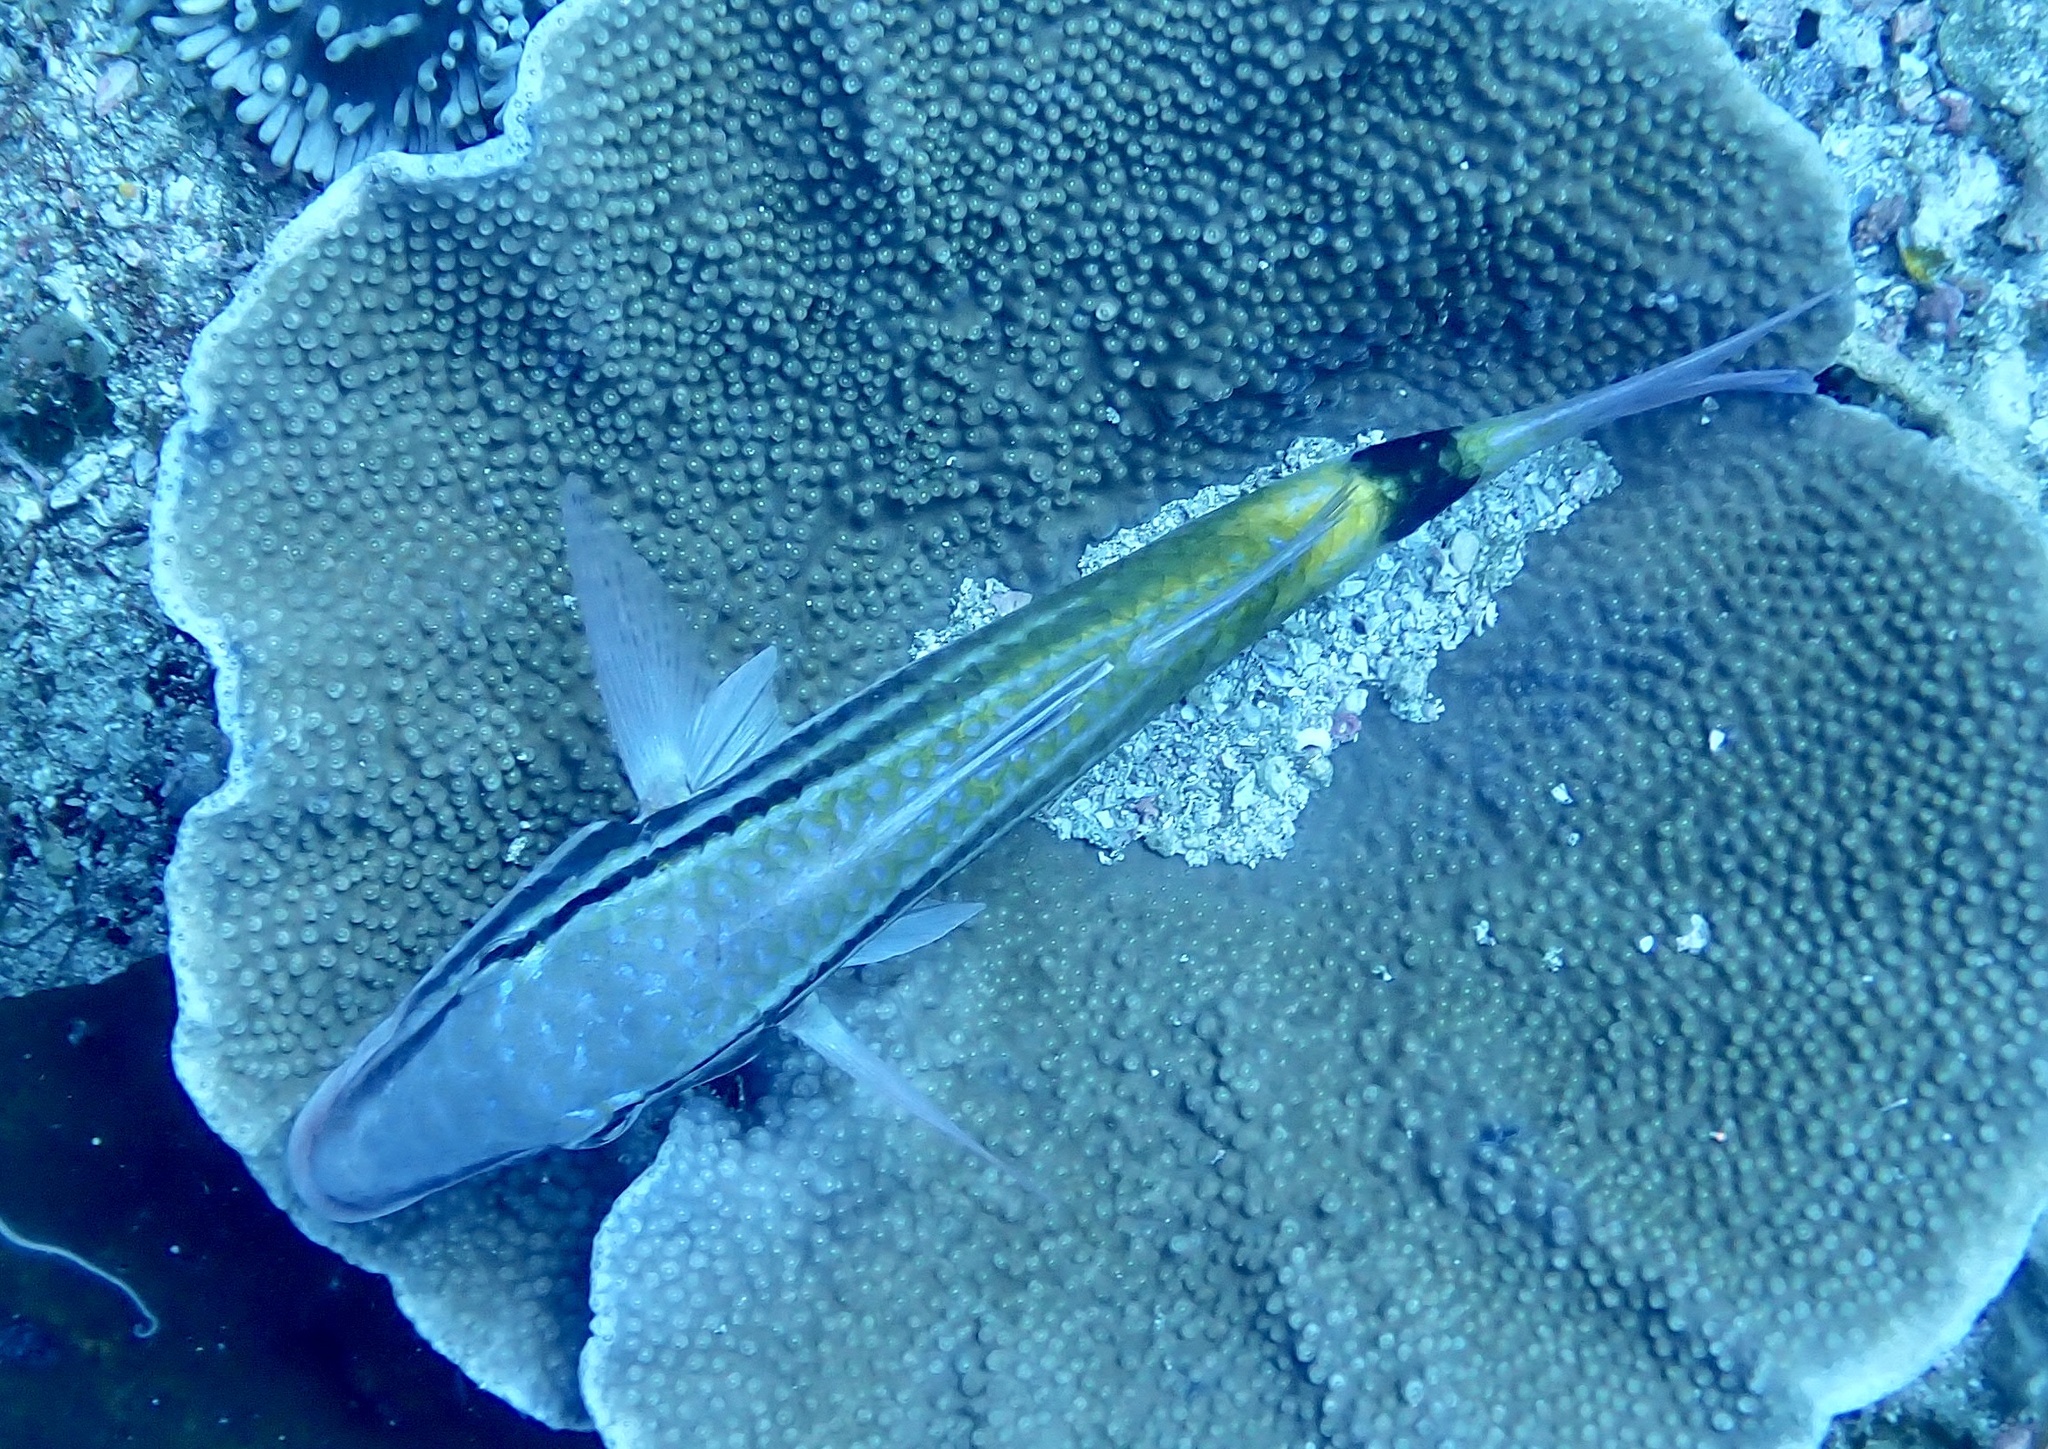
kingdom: Animalia
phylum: Chordata
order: Perciformes
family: Mullidae
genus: Parupeneus
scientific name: Parupeneus spilurus
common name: Blackspot goatfish
